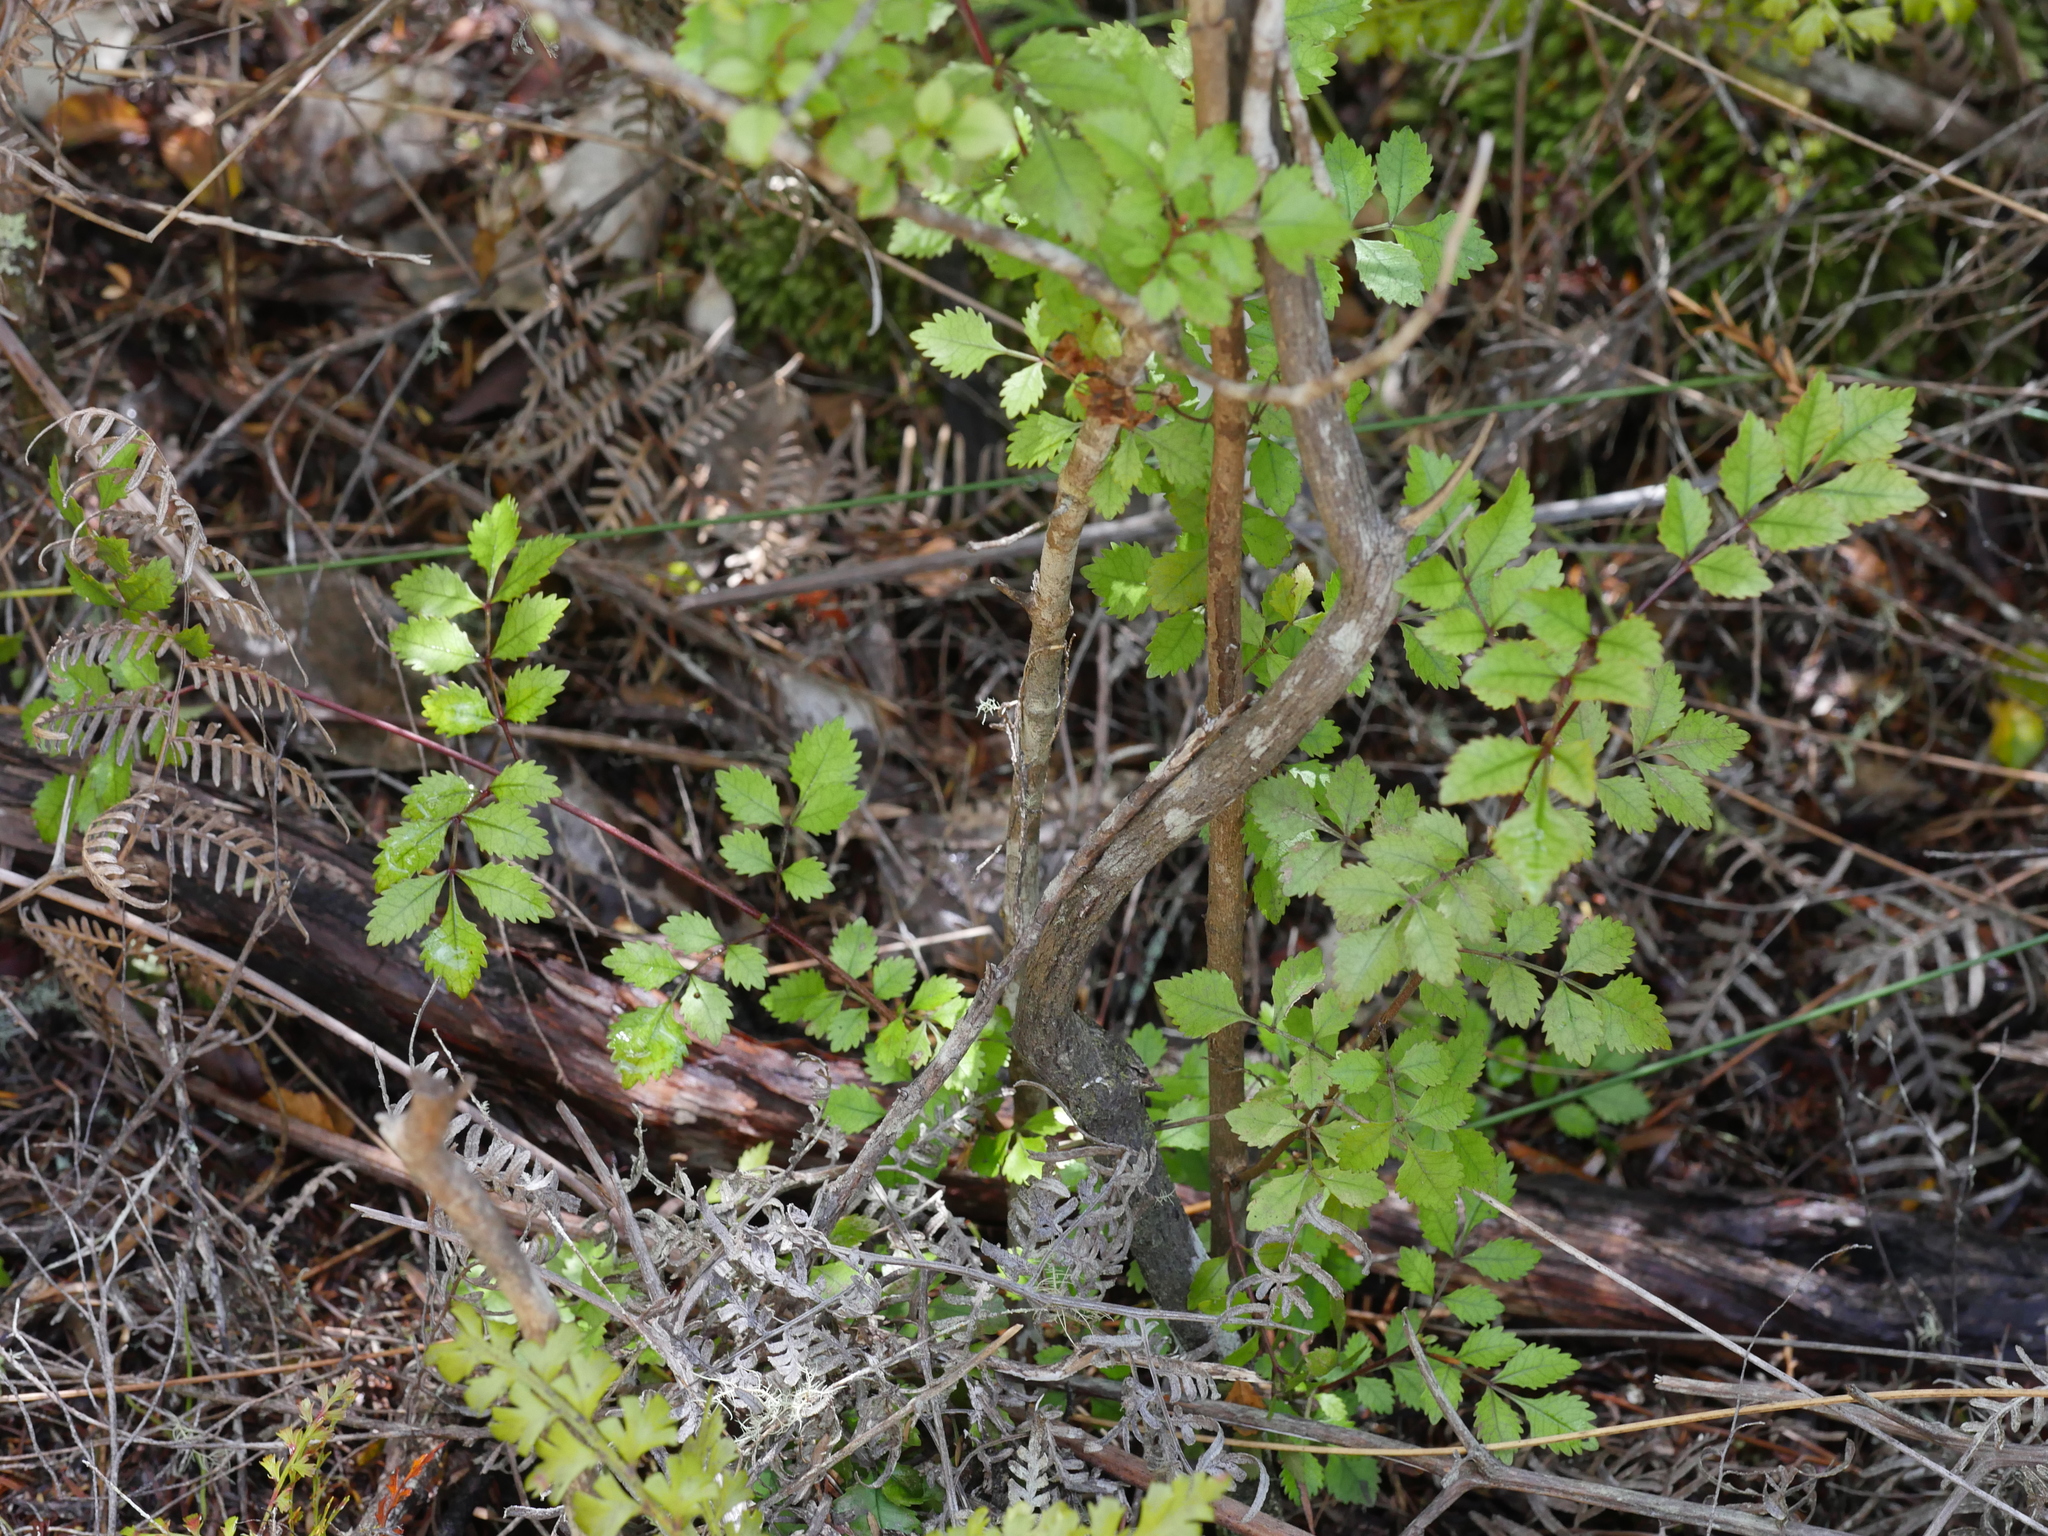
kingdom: Plantae
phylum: Tracheophyta
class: Magnoliopsida
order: Oxalidales
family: Cunoniaceae
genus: Pterophylla
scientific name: Pterophylla sylvicola
